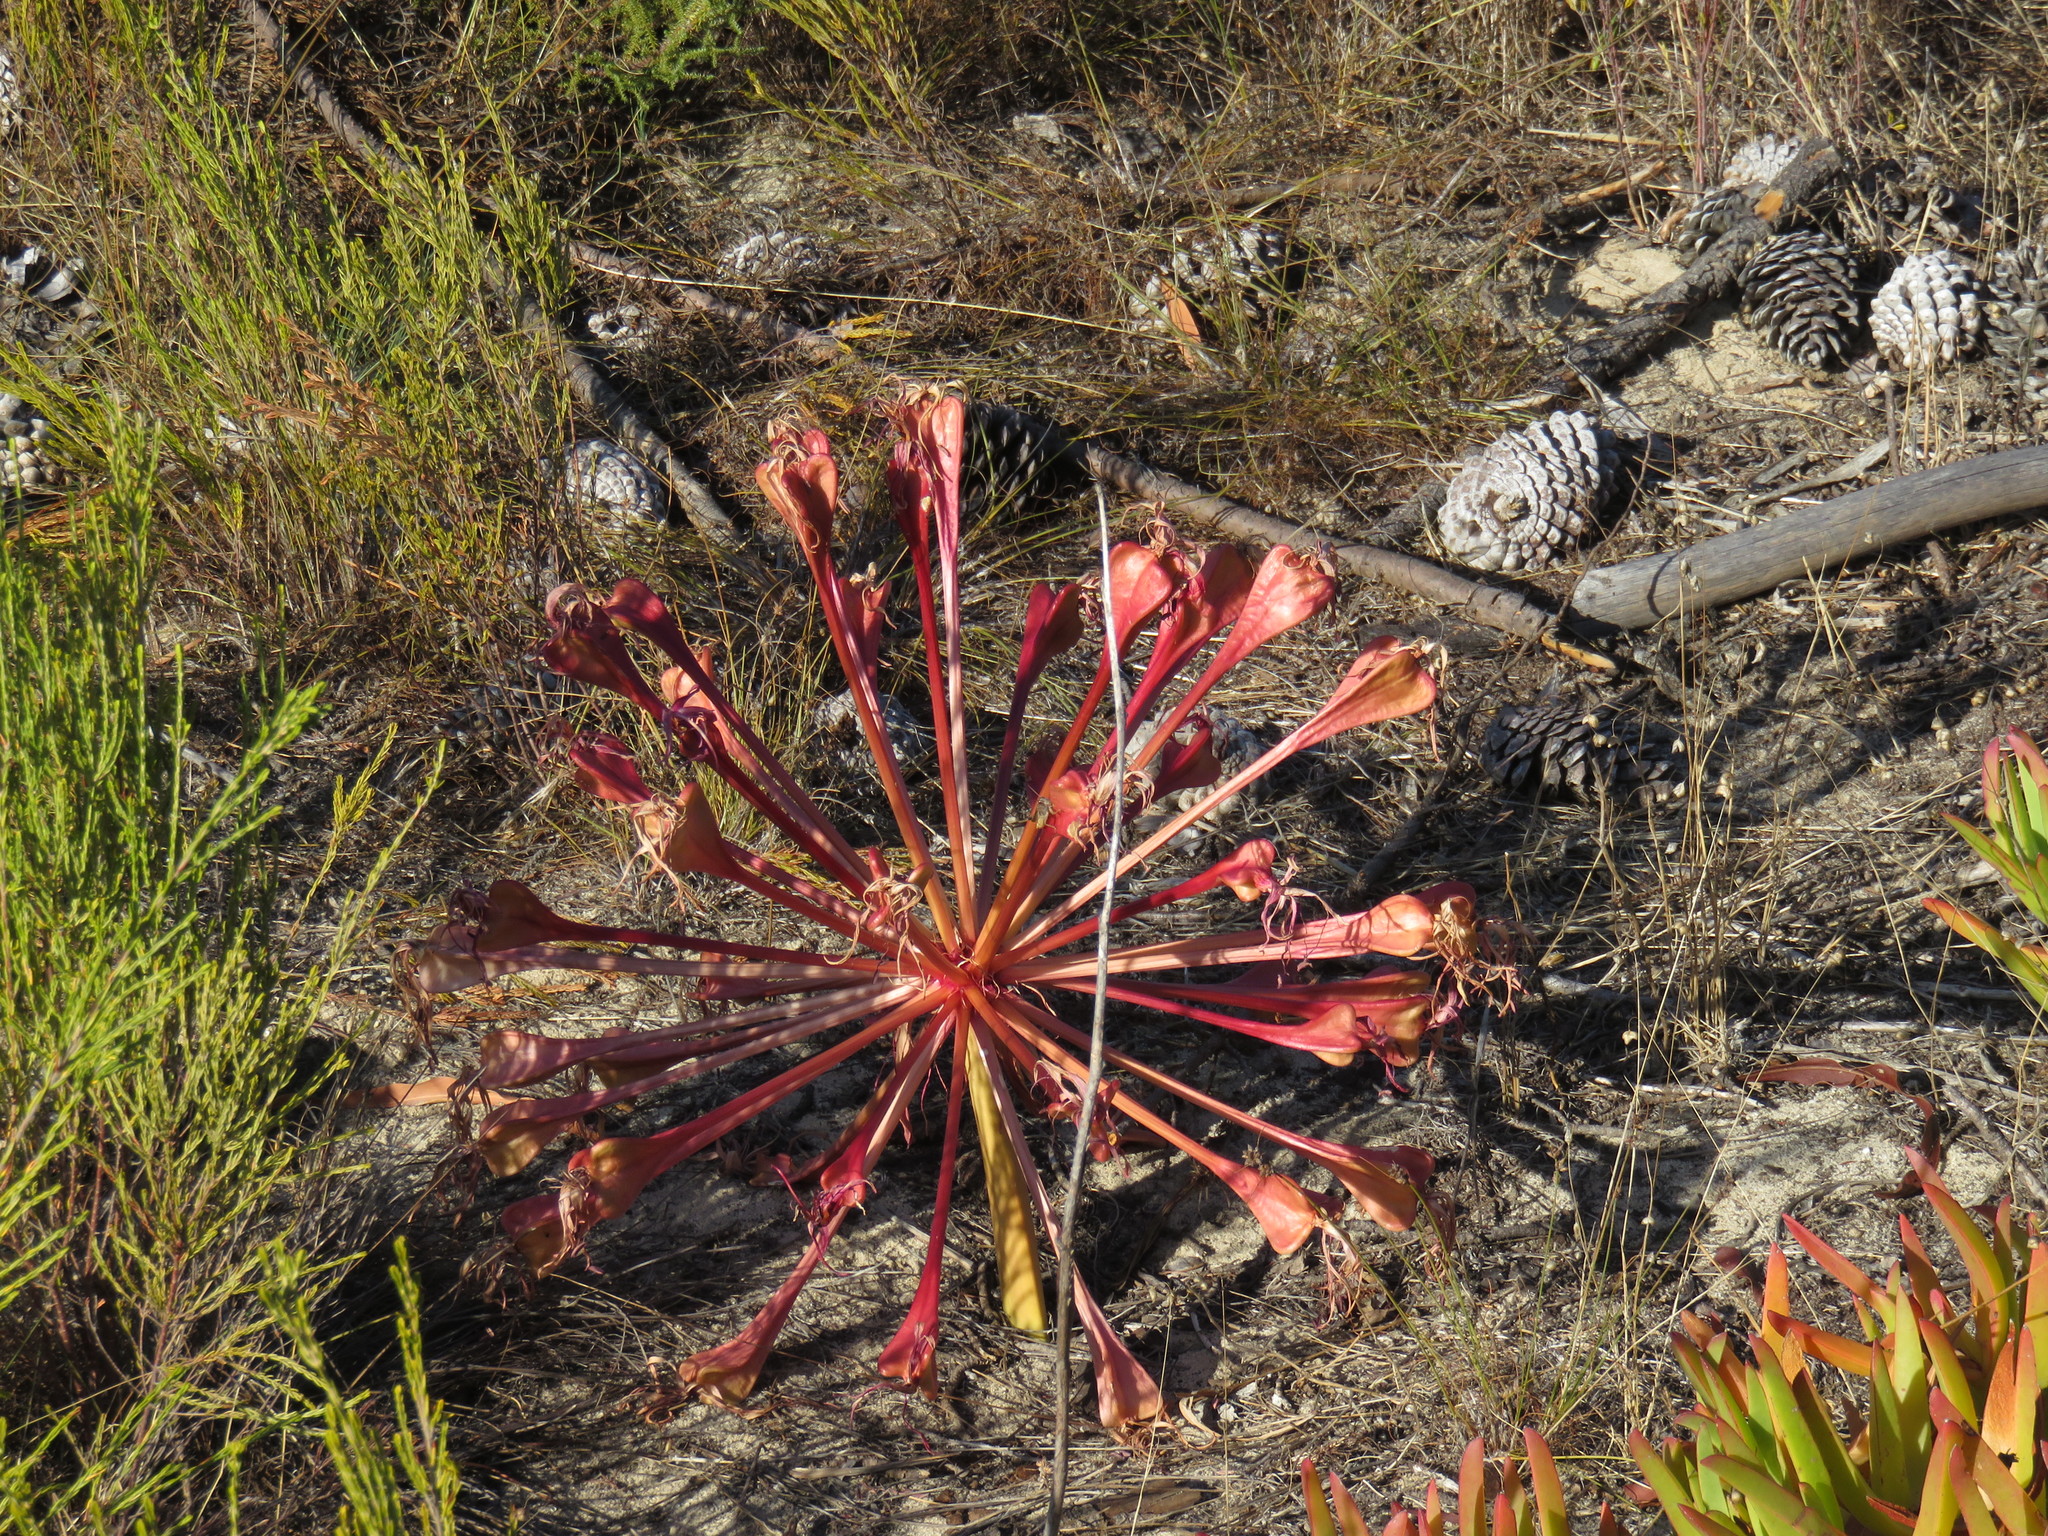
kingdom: Plantae
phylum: Tracheophyta
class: Liliopsida
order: Asparagales
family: Amaryllidaceae
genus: Brunsvigia
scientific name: Brunsvigia orientalis
